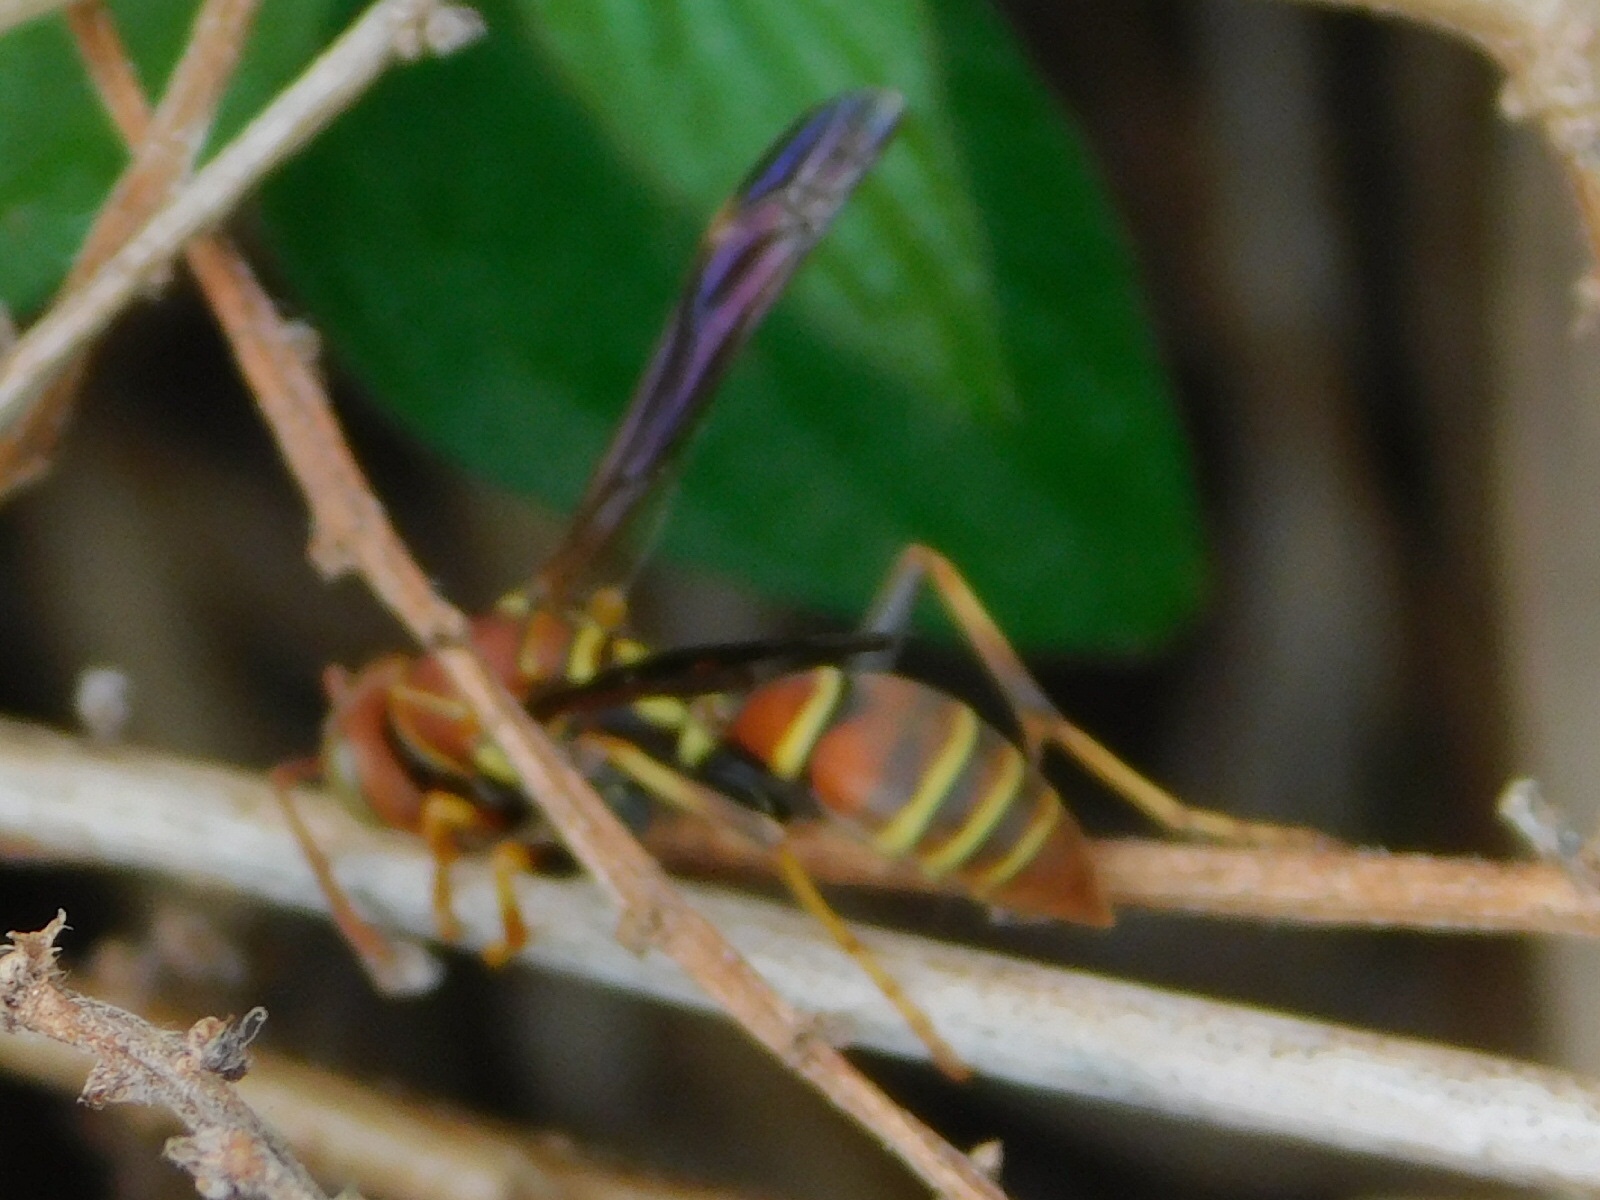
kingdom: Animalia
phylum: Arthropoda
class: Insecta
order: Hymenoptera
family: Eumenidae
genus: Polistes
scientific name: Polistes dorsalis
